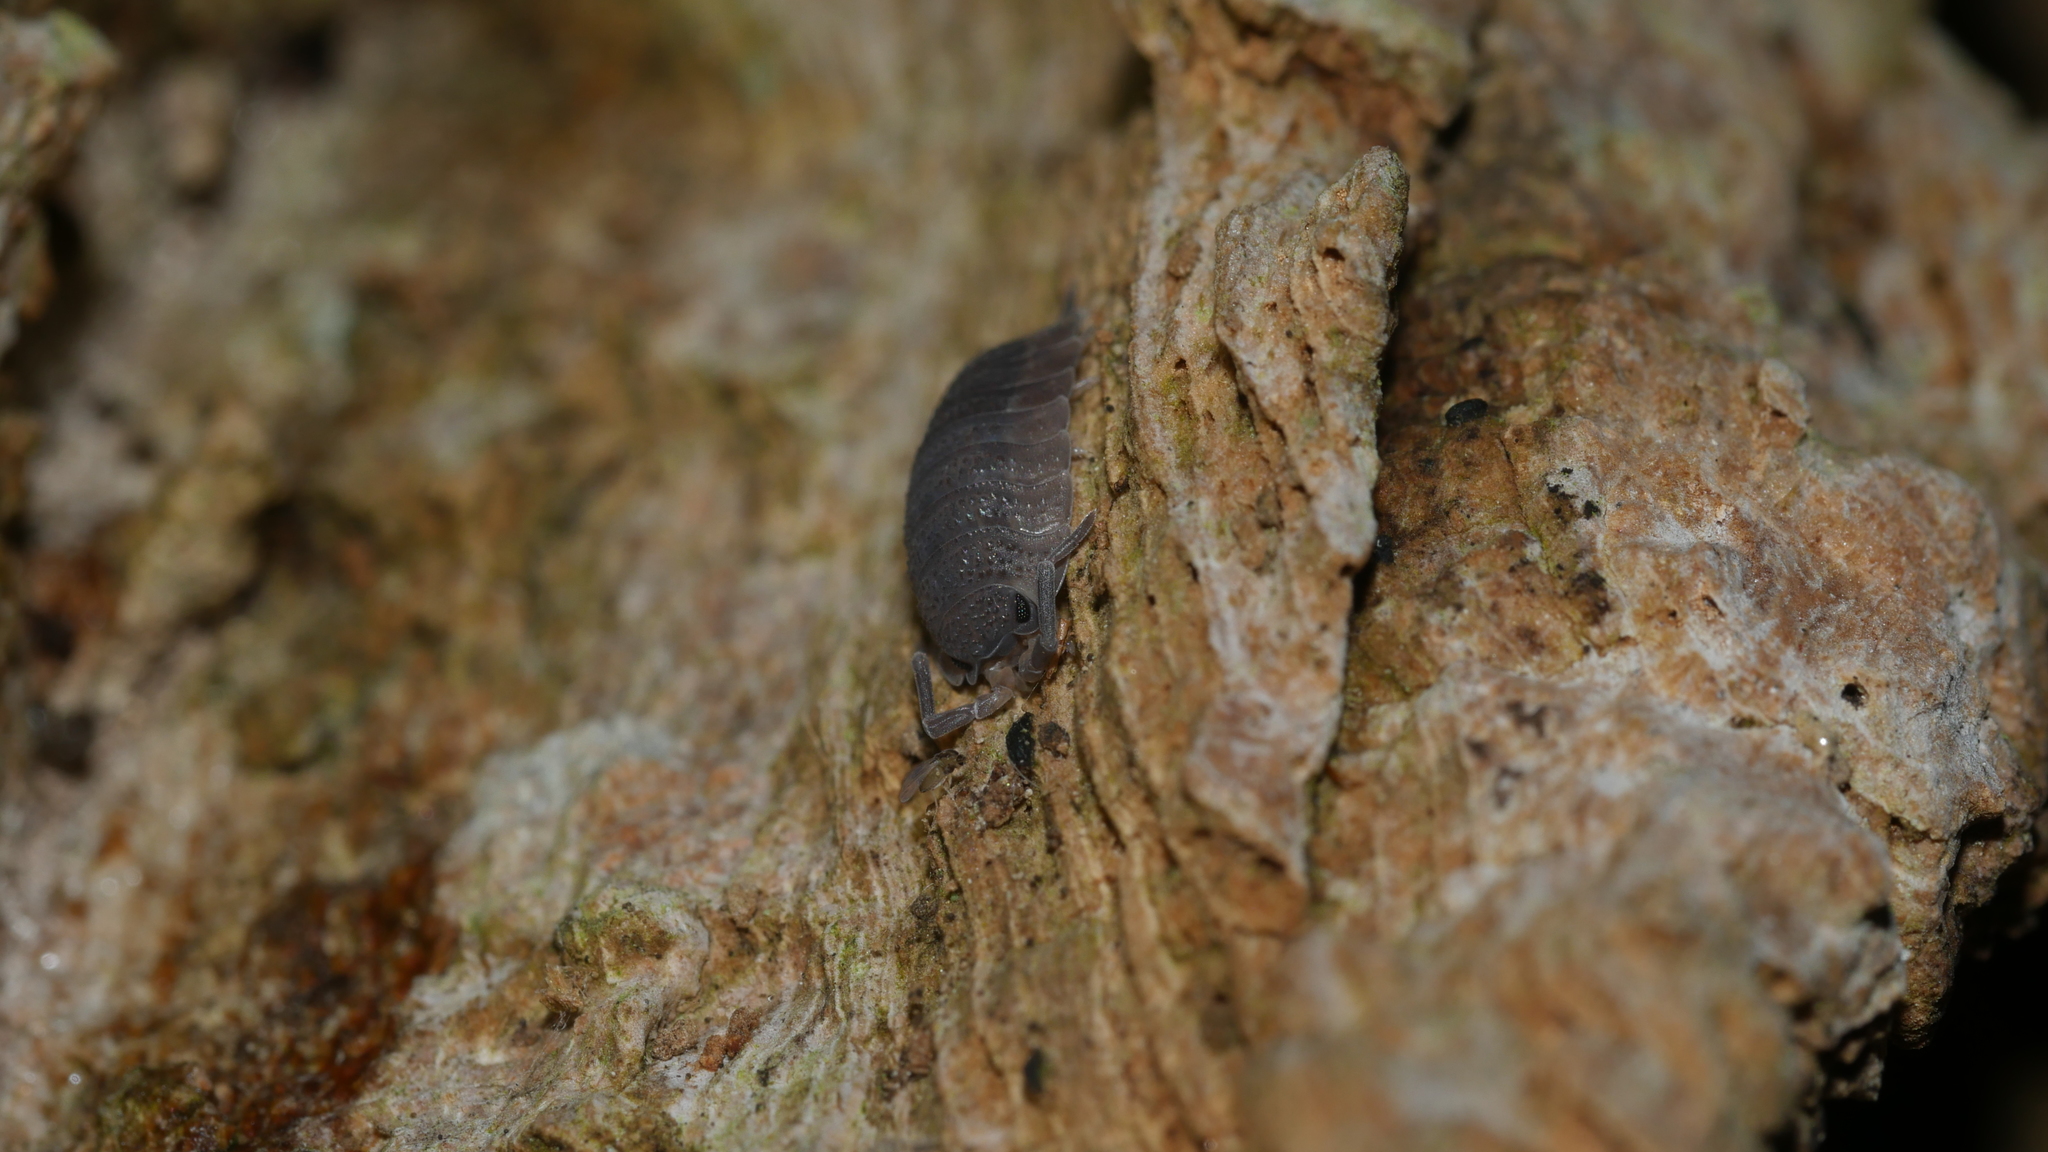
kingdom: Animalia
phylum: Arthropoda
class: Malacostraca
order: Isopoda
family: Porcellionidae
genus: Porcellio
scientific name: Porcellio scaber
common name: Common rough woodlouse
